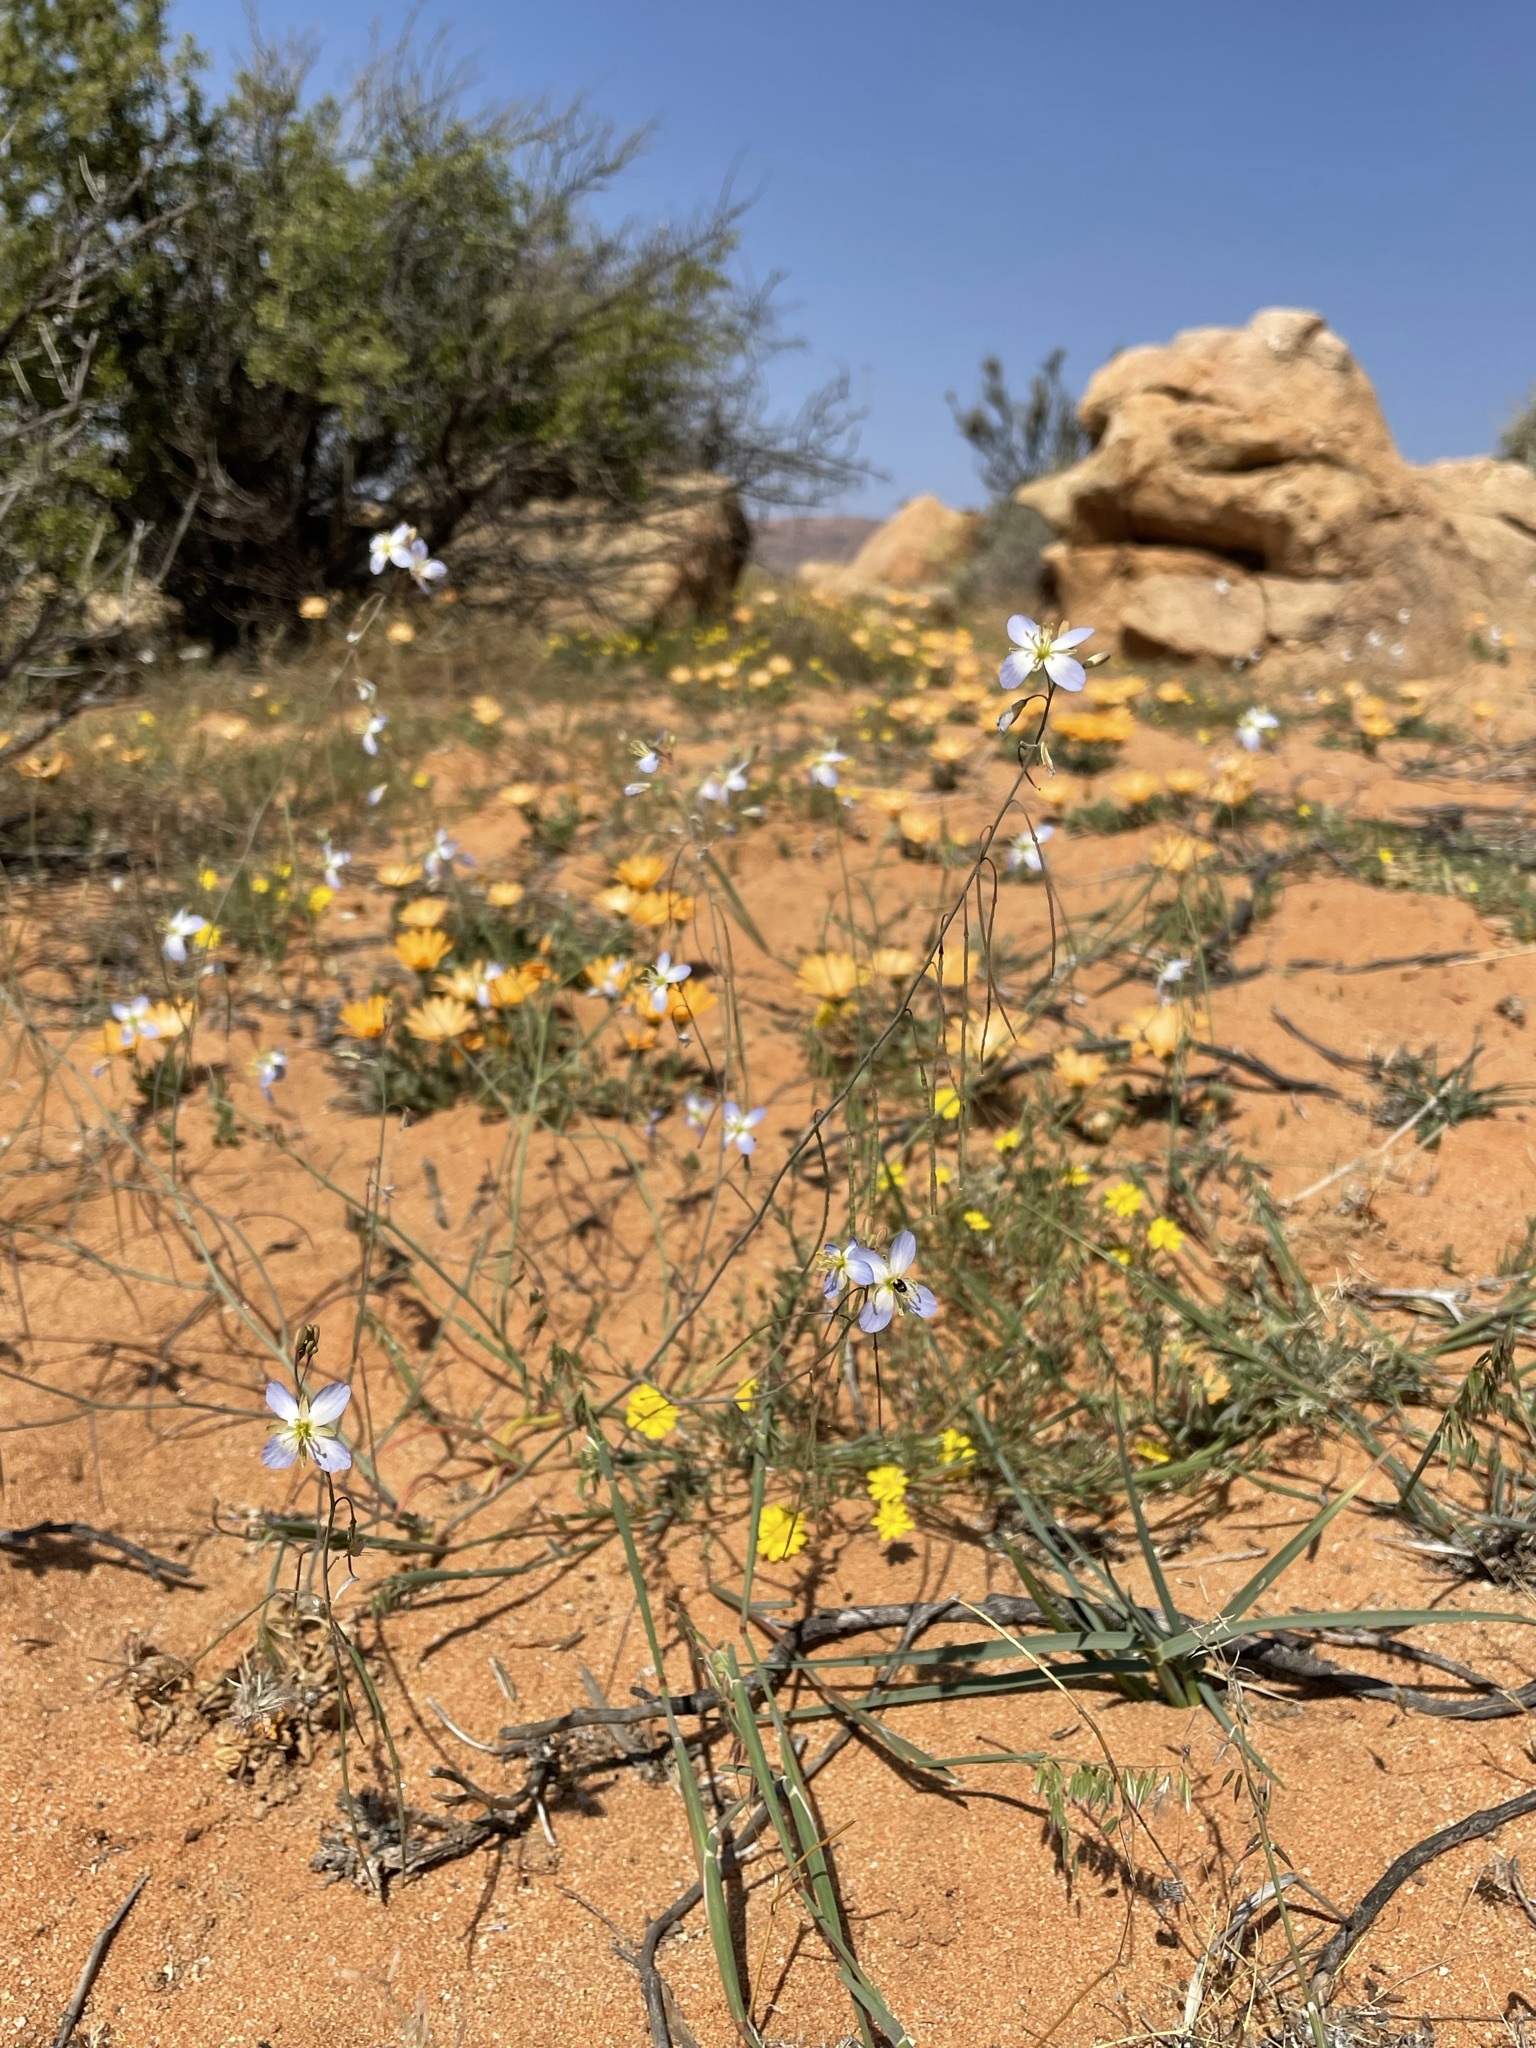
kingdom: Plantae
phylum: Tracheophyta
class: Magnoliopsida
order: Brassicales
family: Brassicaceae
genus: Heliophila
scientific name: Heliophila lactea
